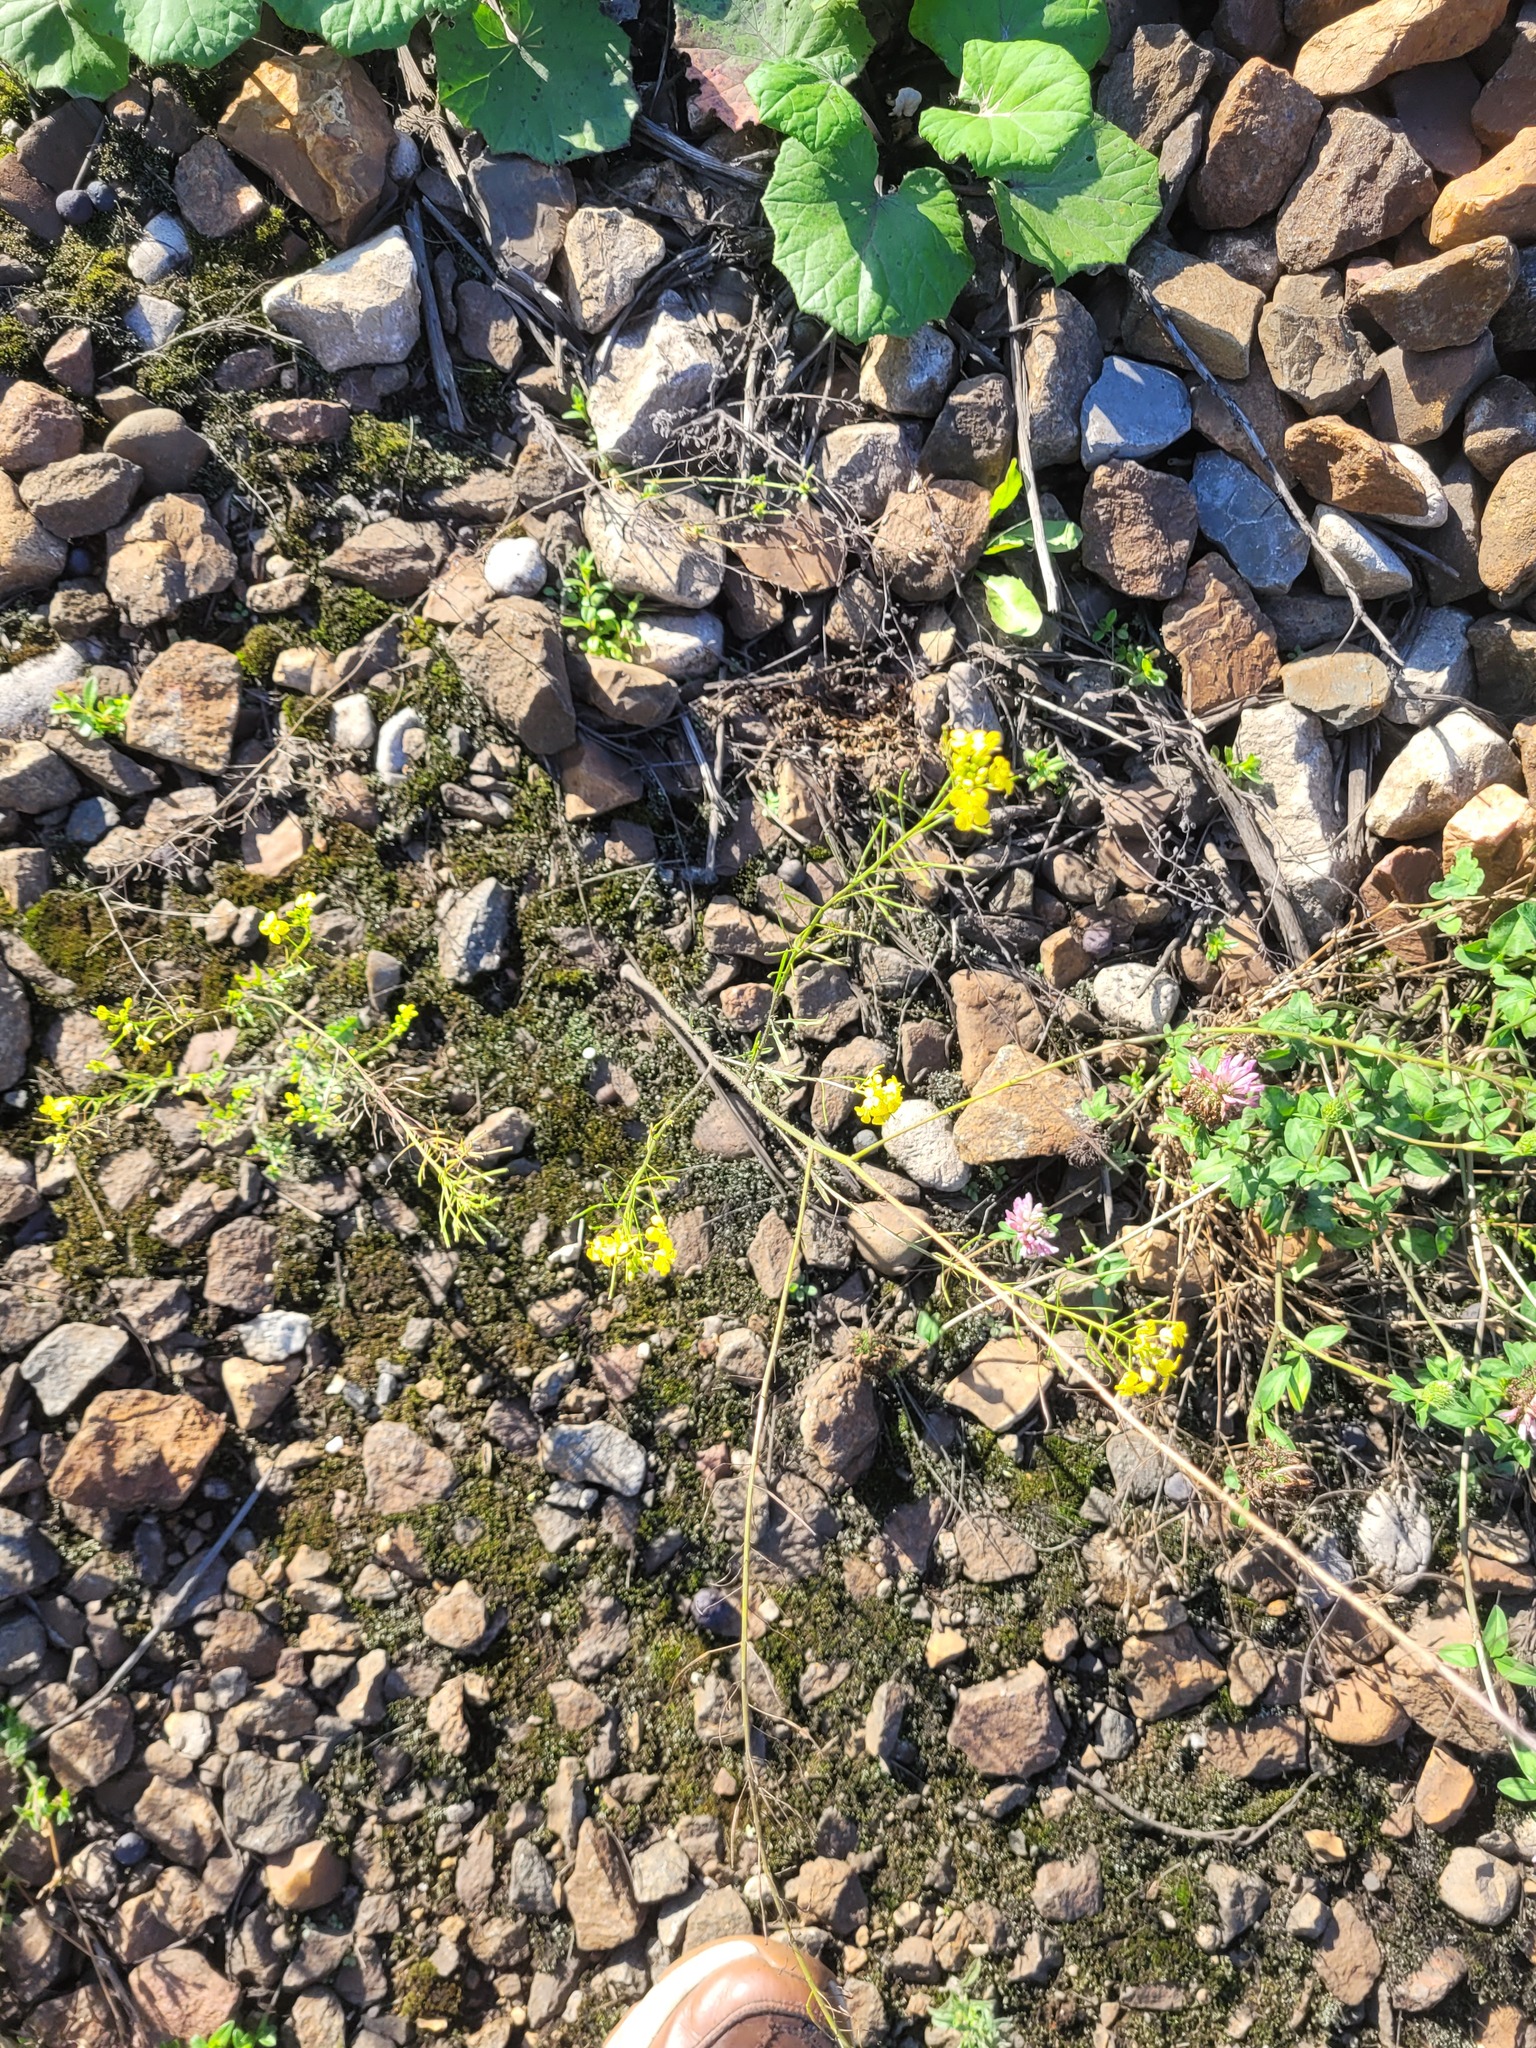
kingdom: Plantae
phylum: Tracheophyta
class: Magnoliopsida
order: Brassicales
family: Brassicaceae
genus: Sisymbrium
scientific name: Sisymbrium loeselii
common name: False london-rocket
